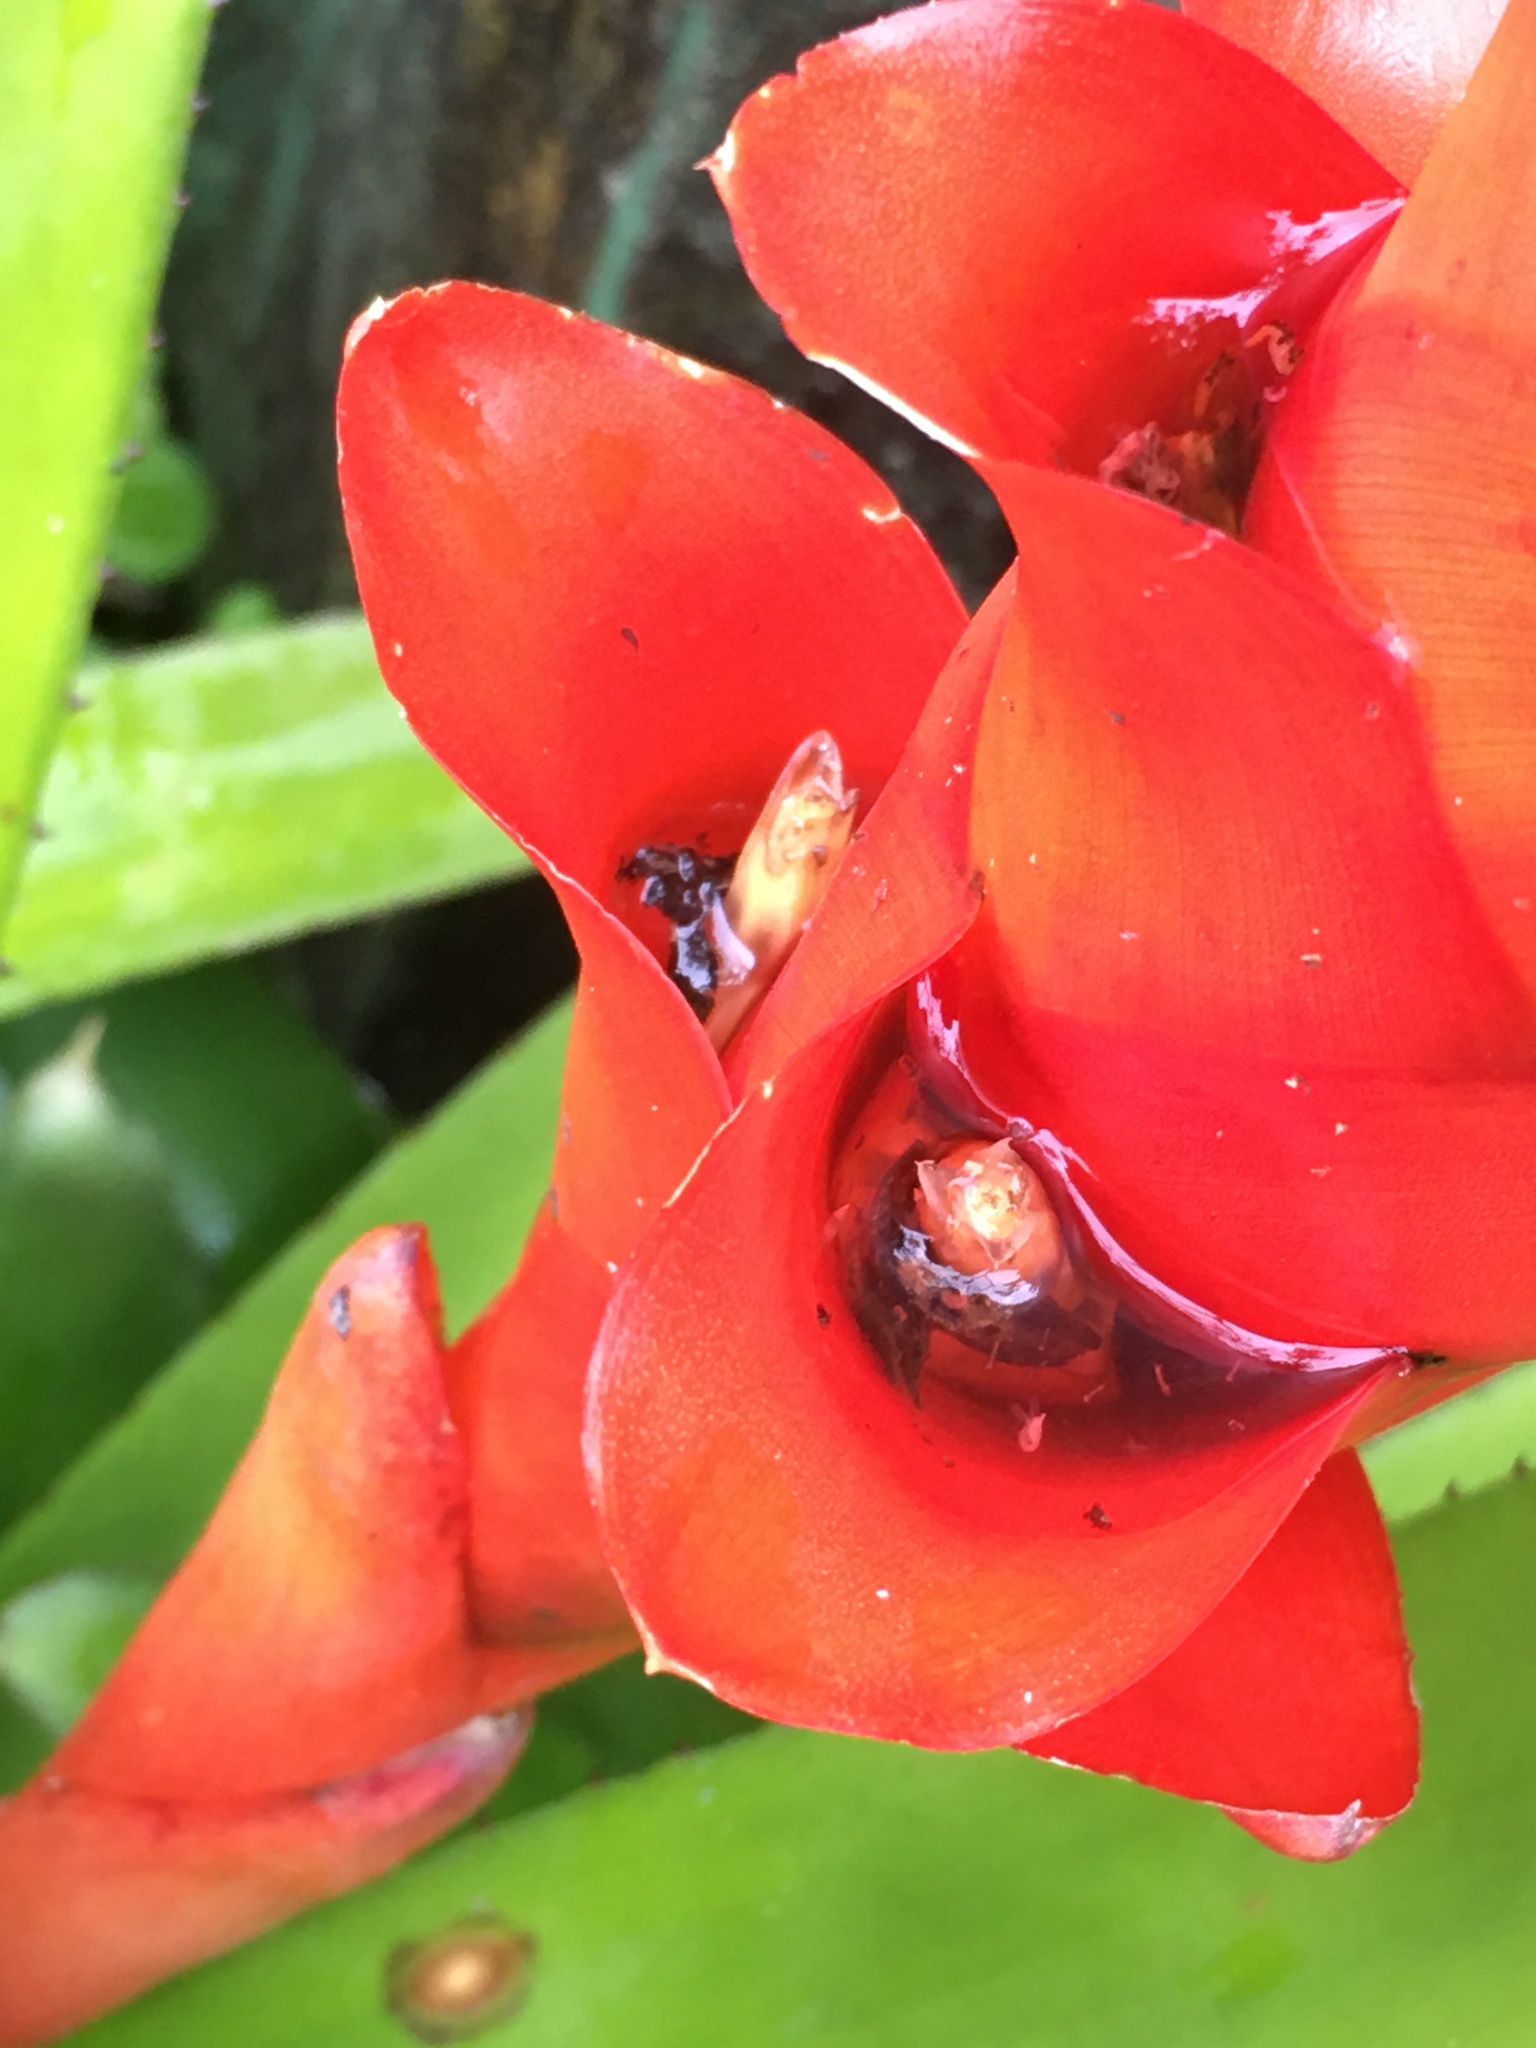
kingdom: Plantae
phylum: Tracheophyta
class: Liliopsida
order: Poales
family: Bromeliaceae
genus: Canistrum
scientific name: Canistrum pickelii
